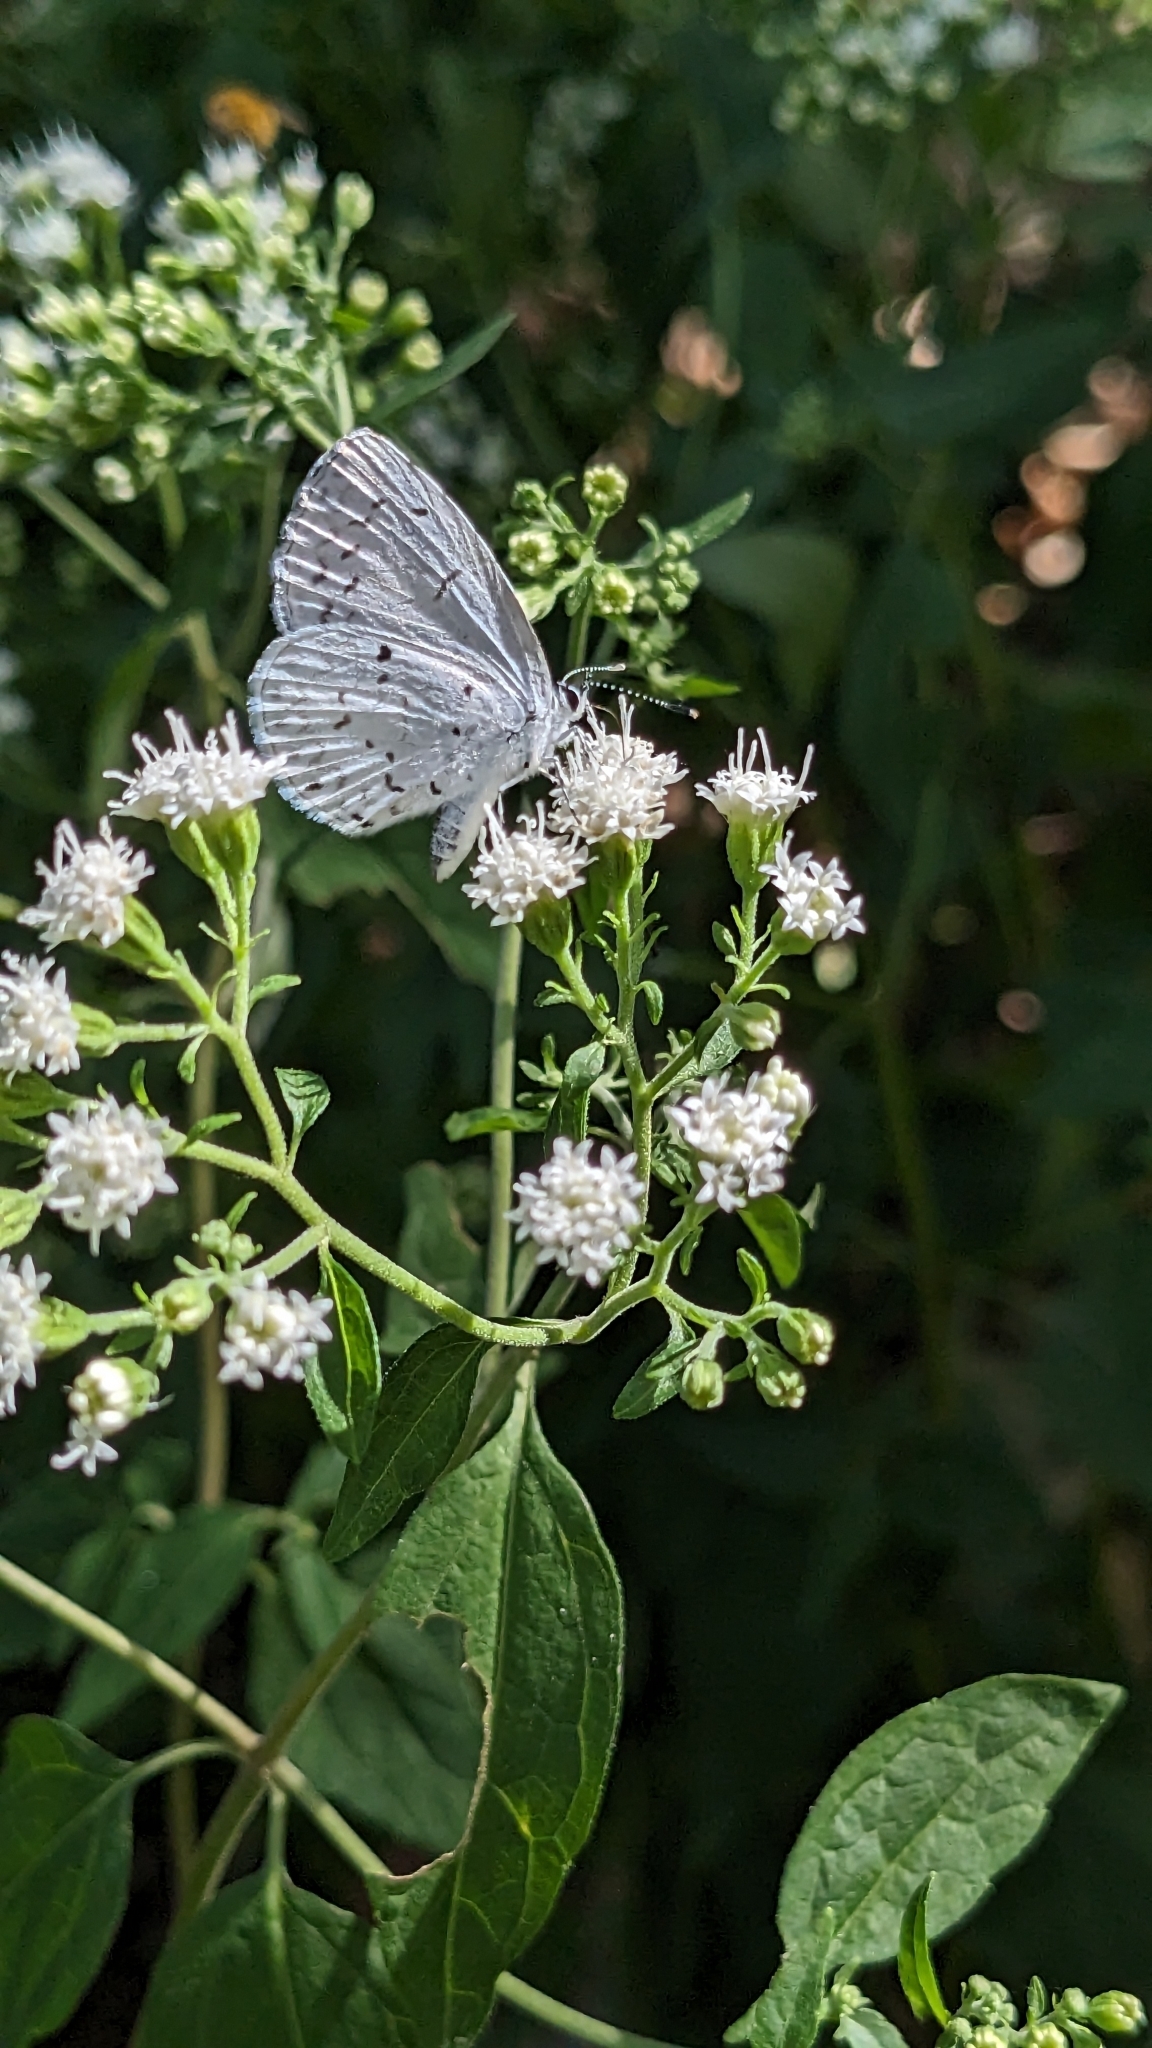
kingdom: Animalia
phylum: Arthropoda
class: Insecta
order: Lepidoptera
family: Lycaenidae
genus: Cyaniris
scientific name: Cyaniris neglecta
